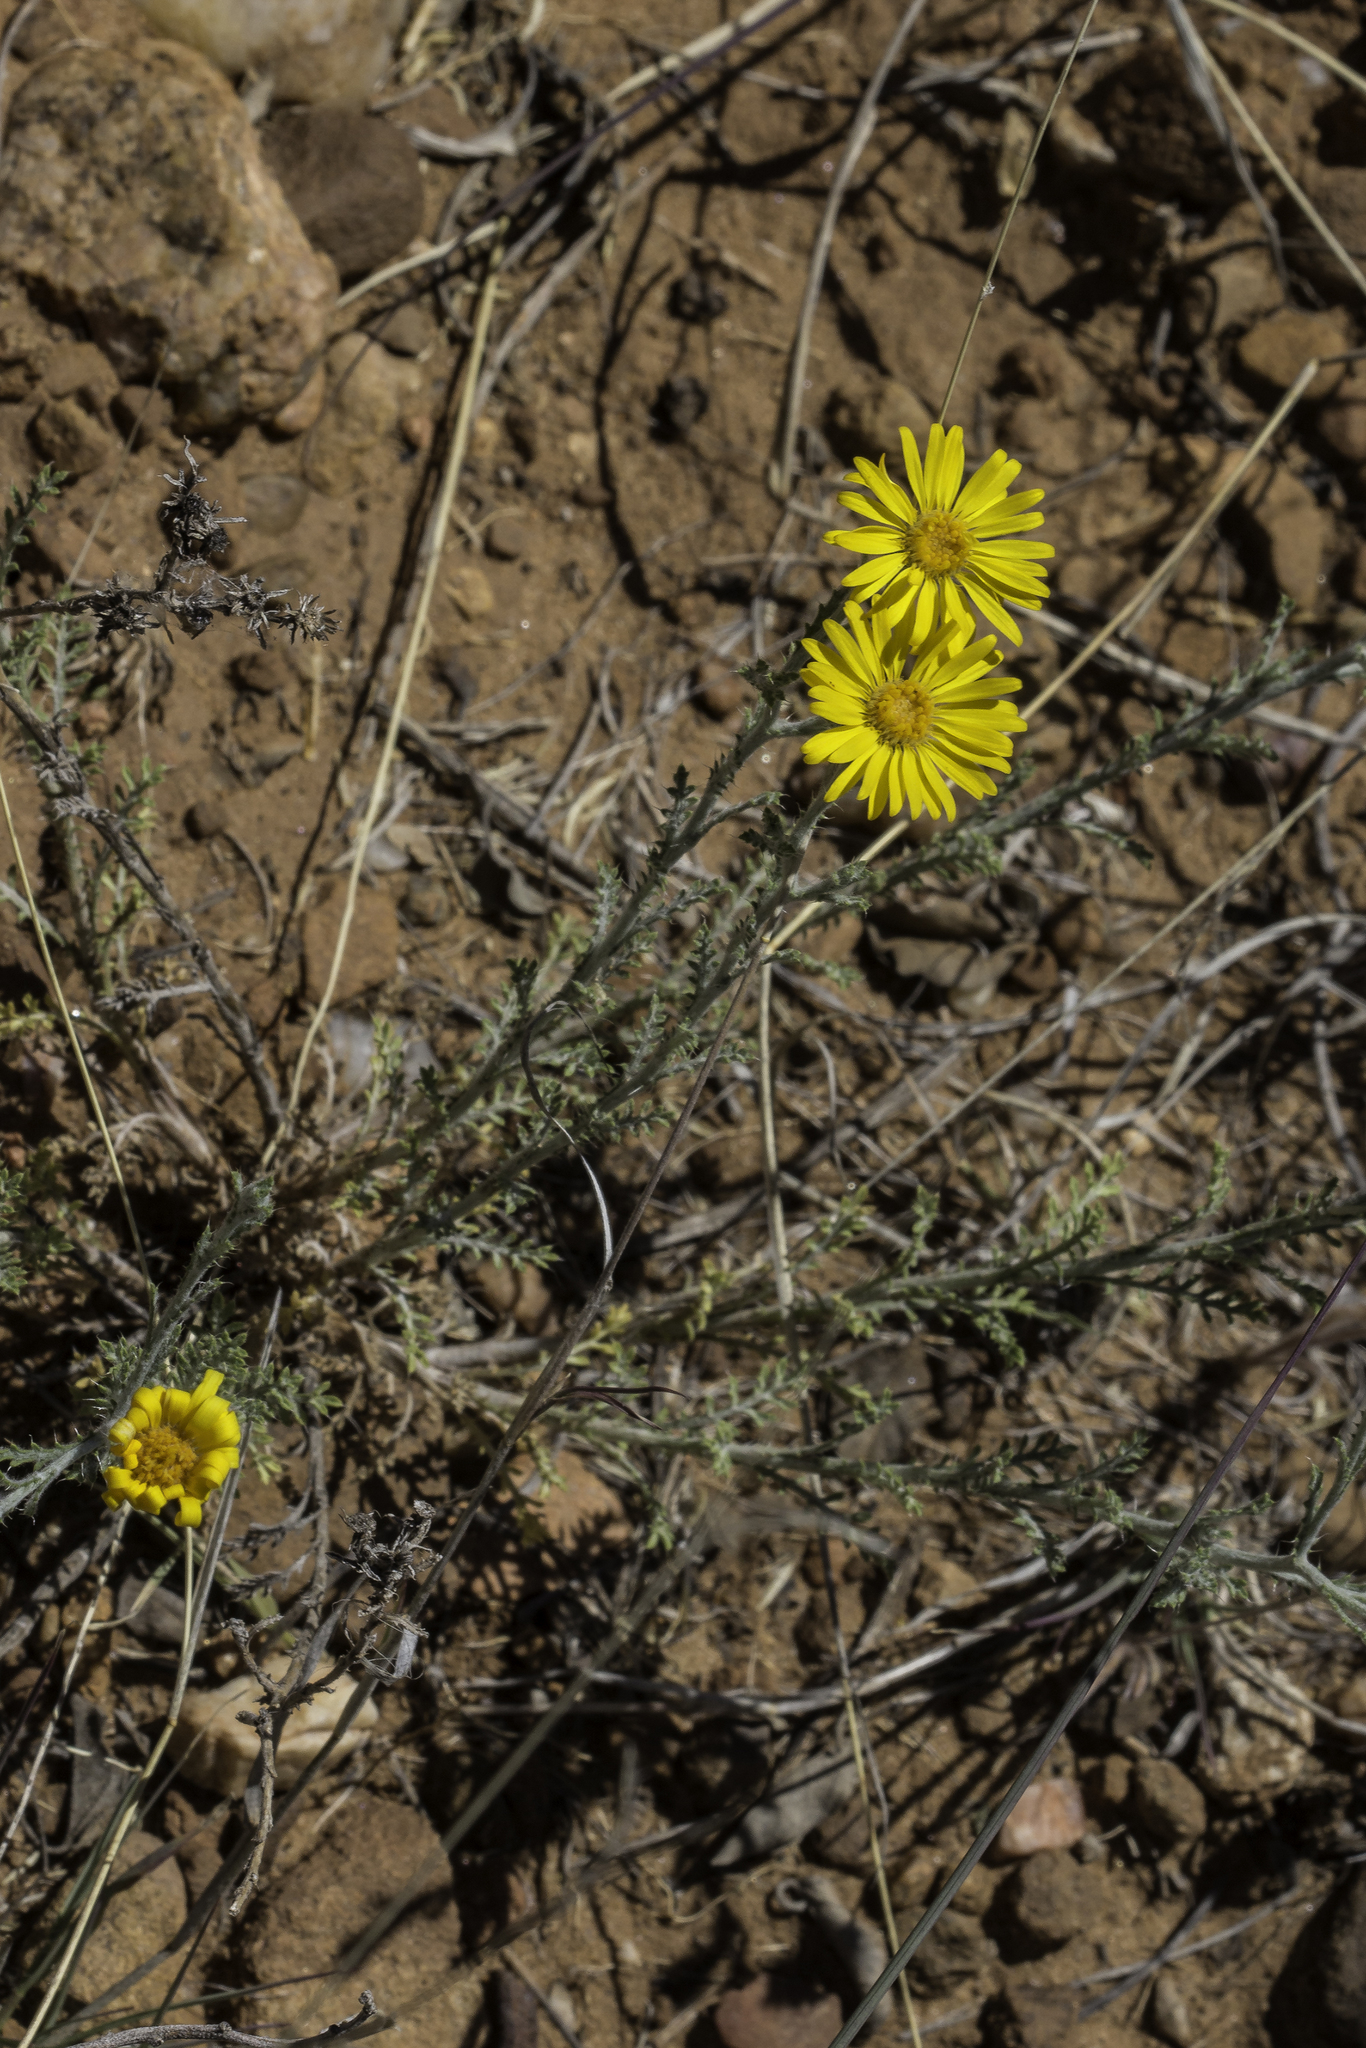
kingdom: Plantae
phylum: Tracheophyta
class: Magnoliopsida
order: Asterales
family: Asteraceae
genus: Xanthisma
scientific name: Xanthisma spinulosum
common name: Spiny goldenweed
